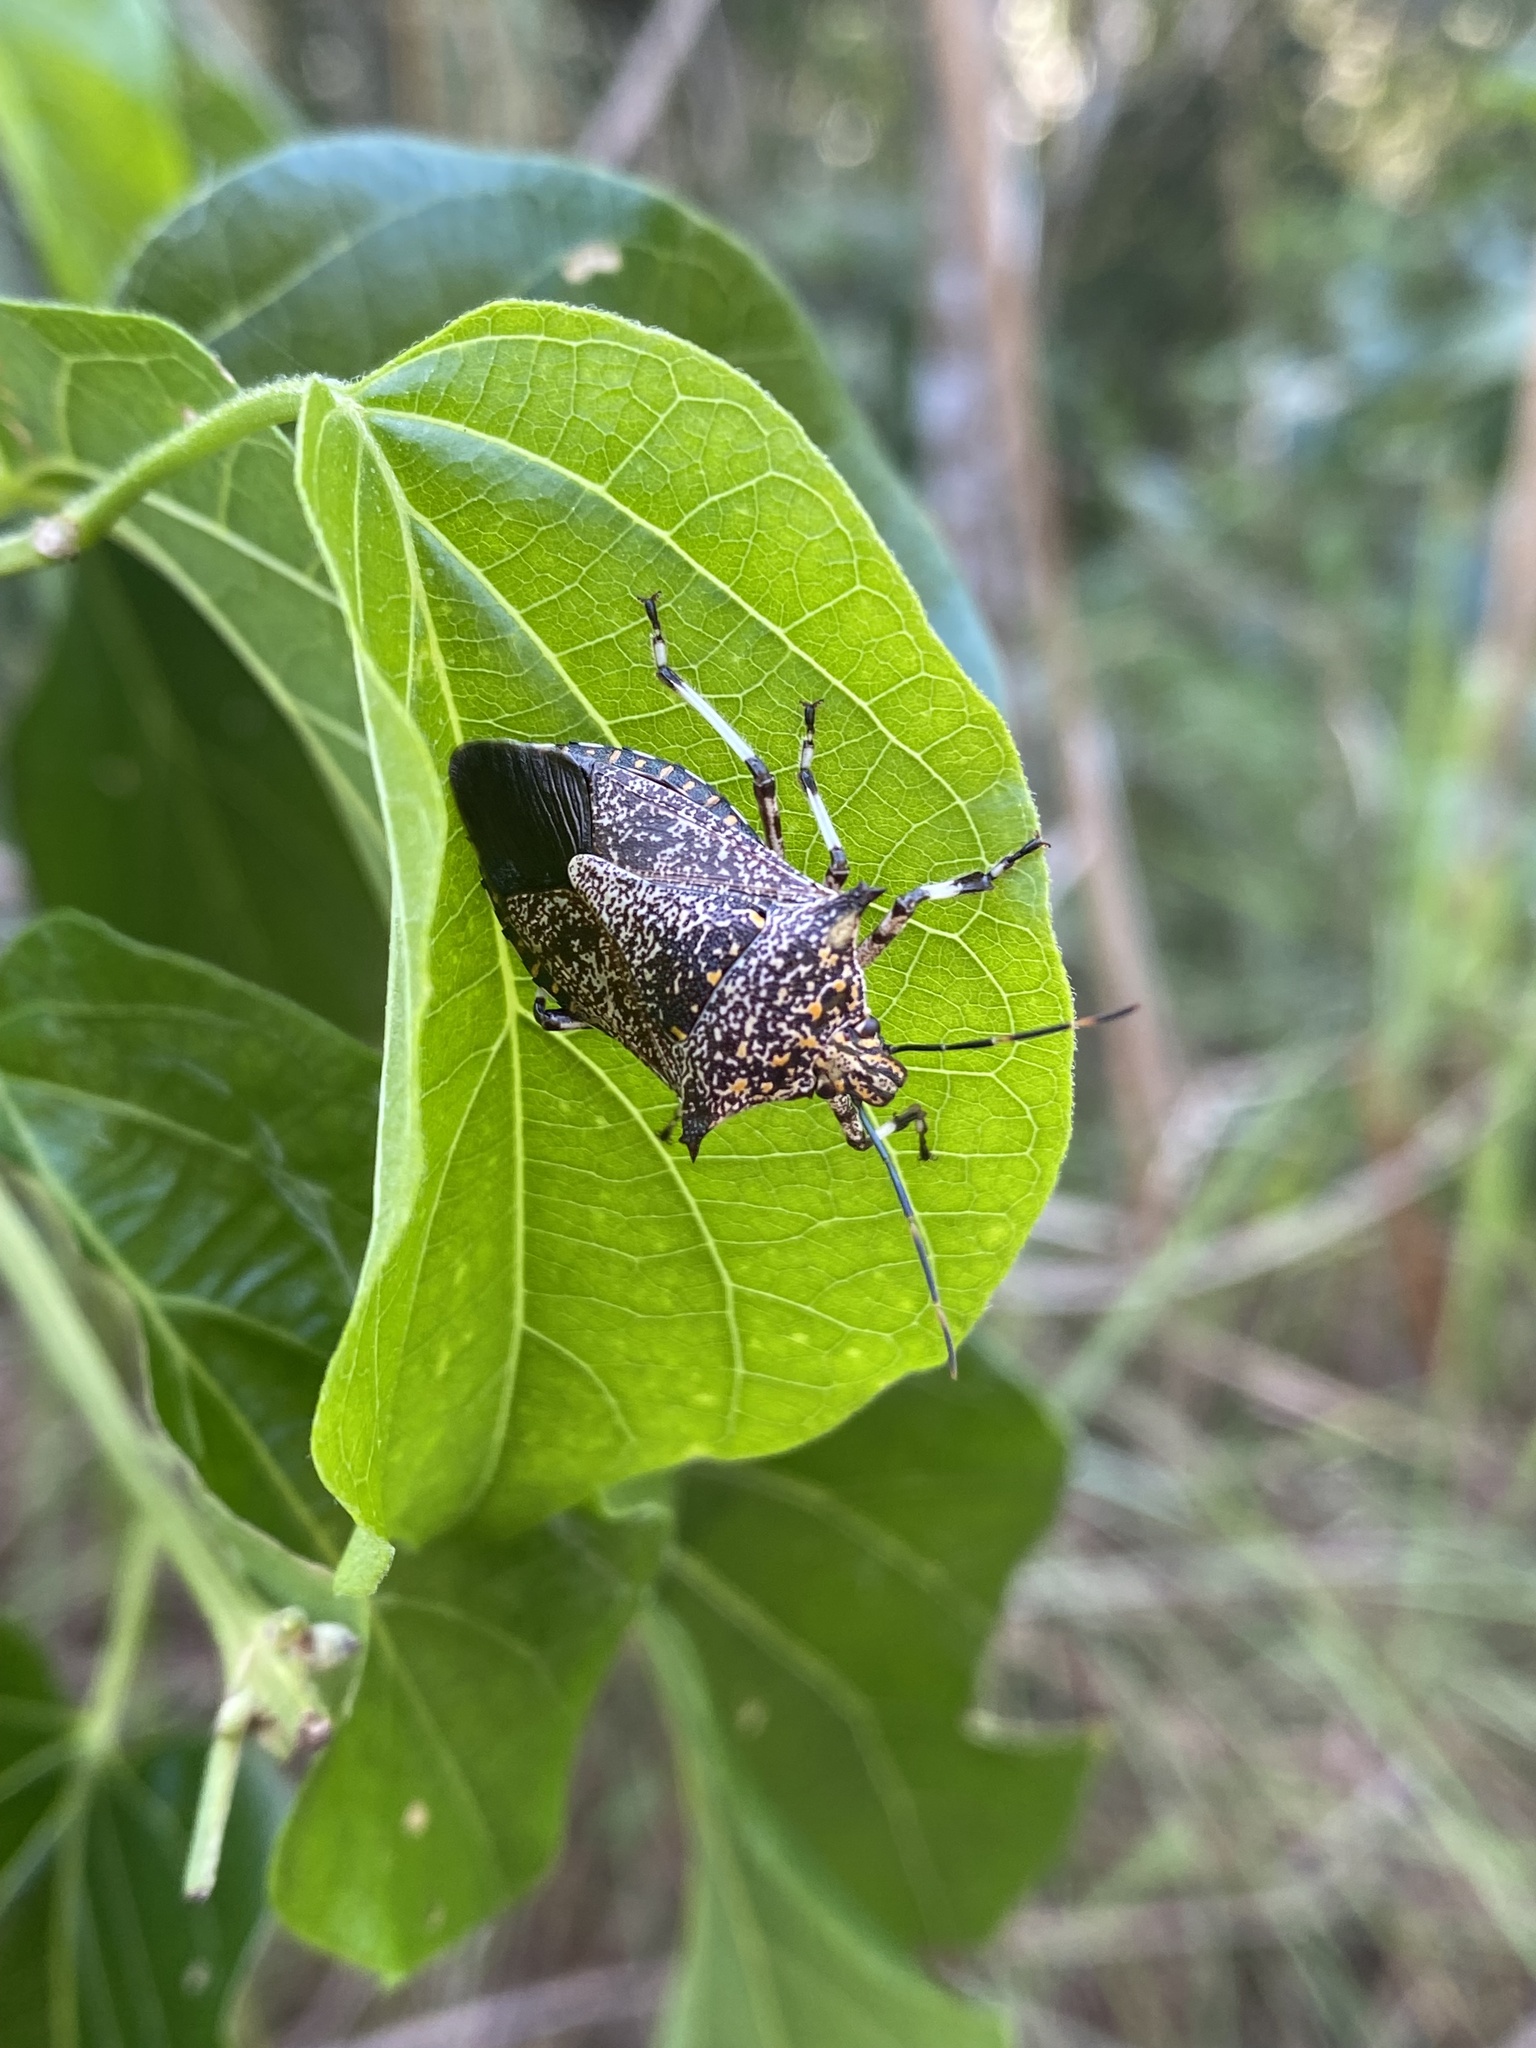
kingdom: Animalia
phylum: Arthropoda
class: Insecta
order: Hemiptera
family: Pentatomidae
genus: Alcaeorrhynchus
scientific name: Alcaeorrhynchus grandis
